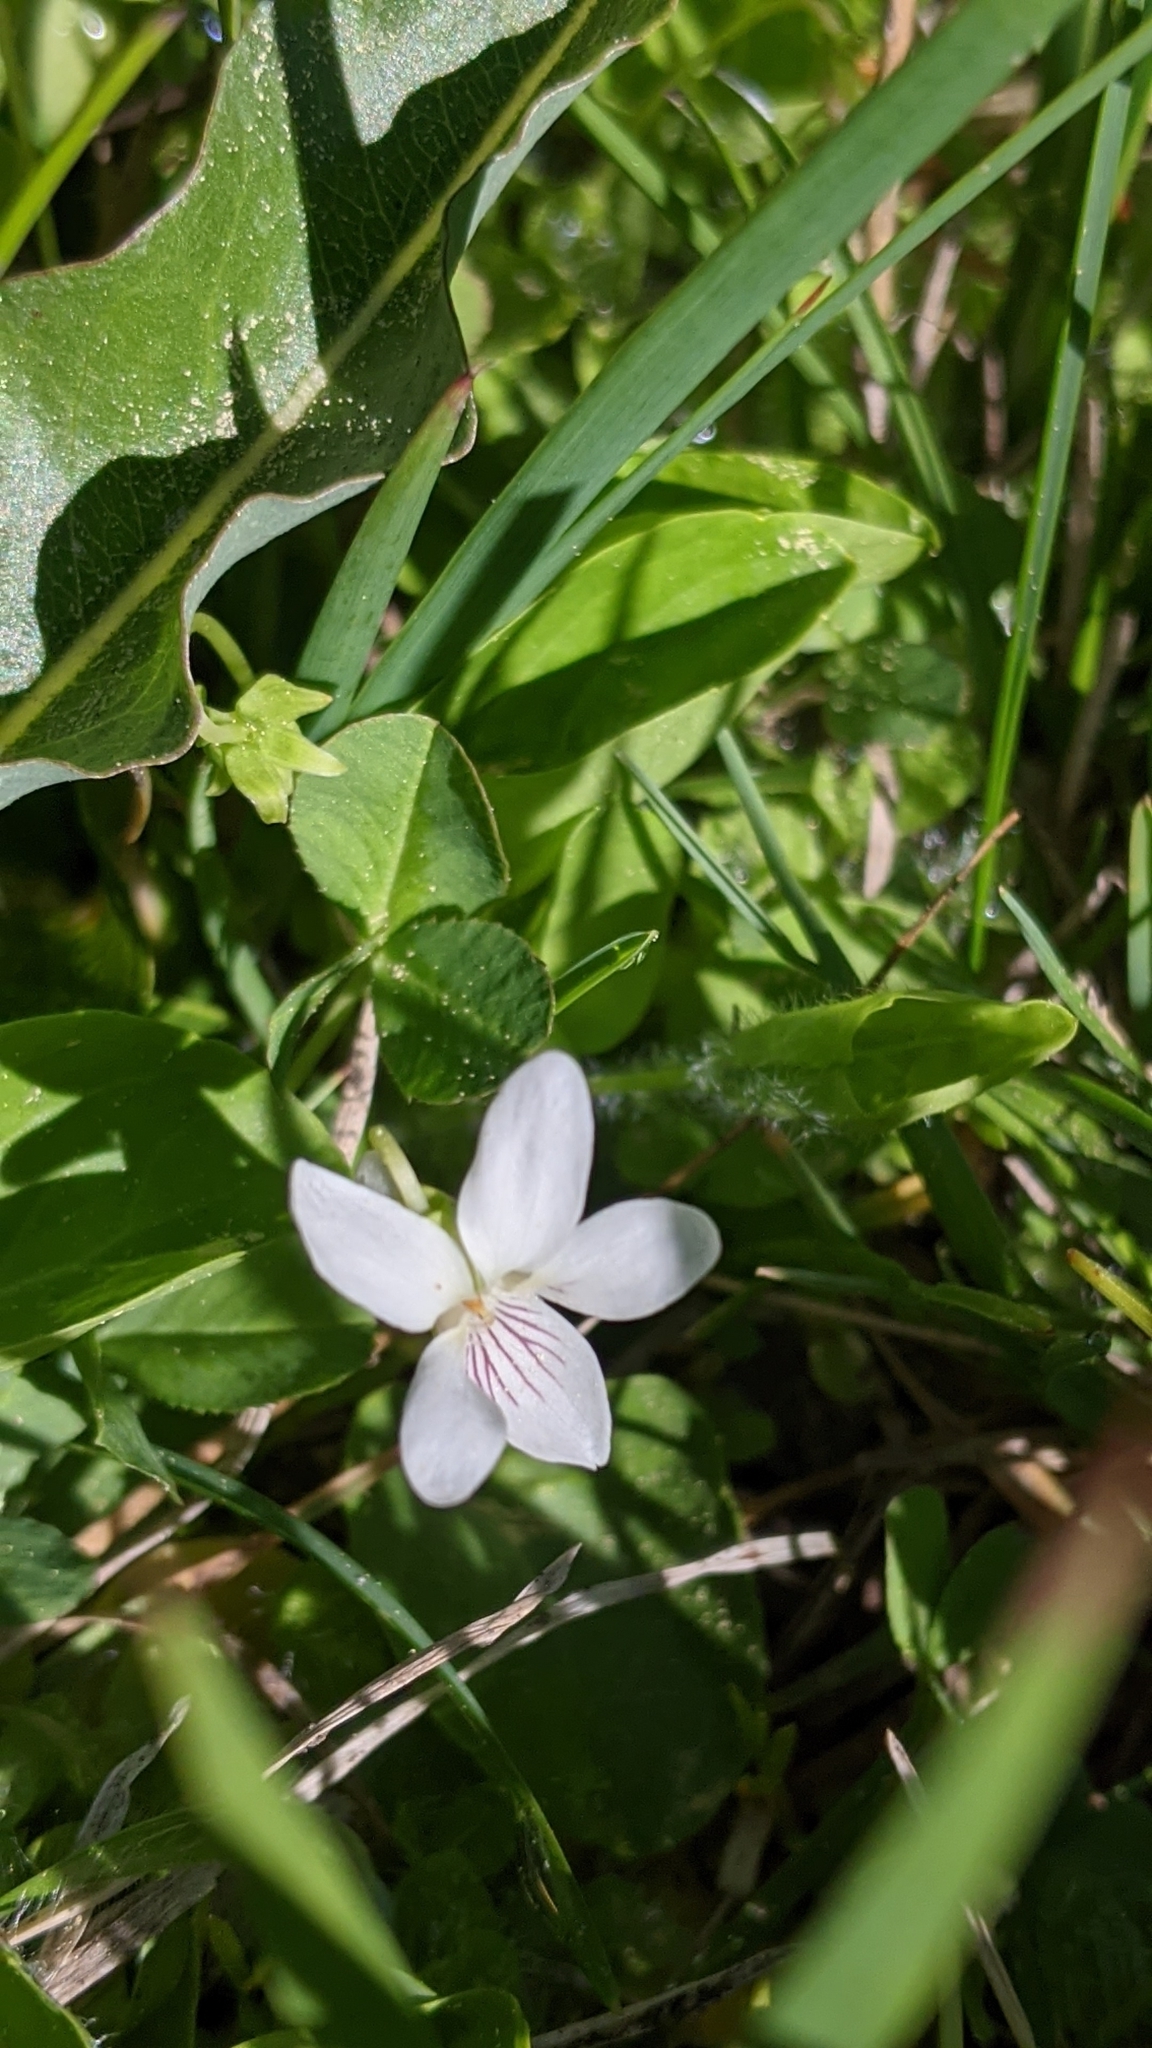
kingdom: Plantae
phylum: Tracheophyta
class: Magnoliopsida
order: Malpighiales
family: Violaceae
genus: Viola
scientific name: Viola macloskeyi
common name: Macloskey's violet
